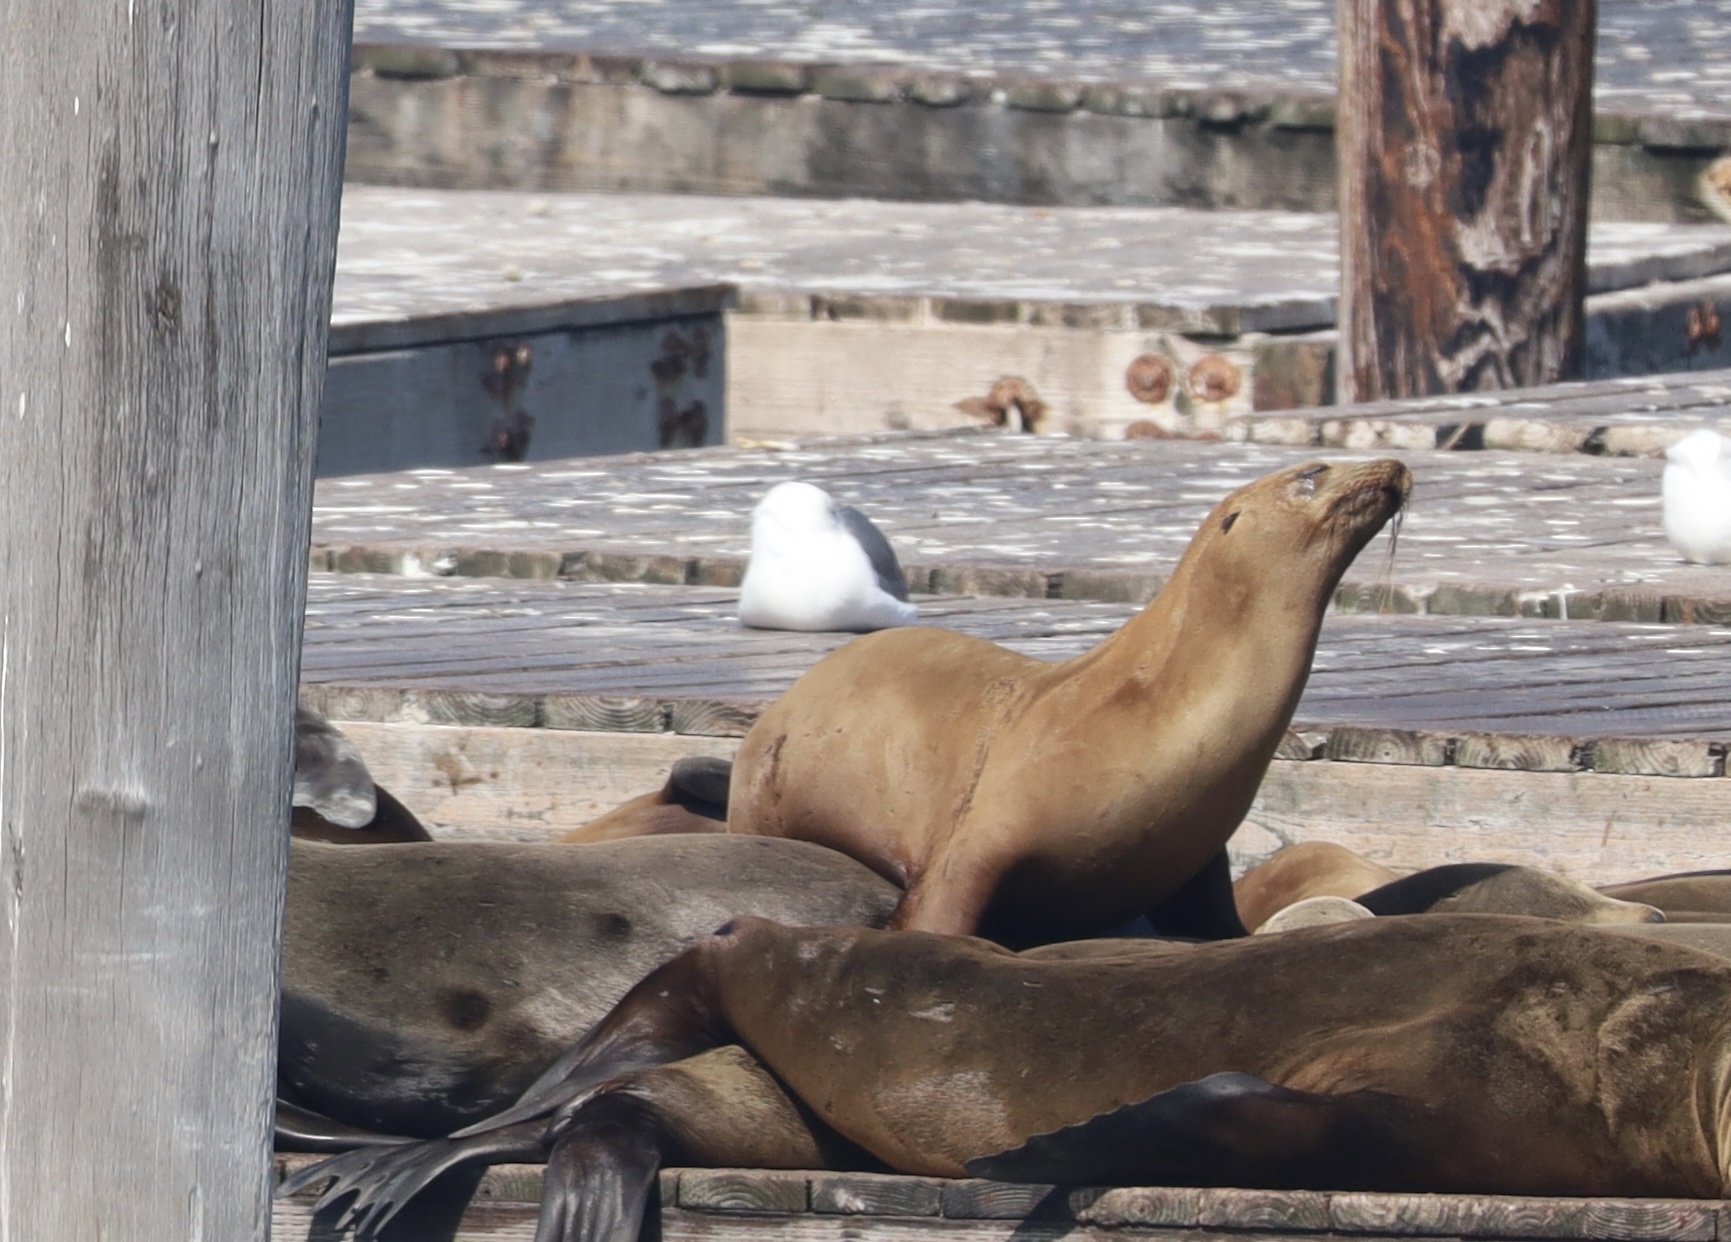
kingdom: Animalia
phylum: Chordata
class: Mammalia
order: Carnivora
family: Otariidae
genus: Zalophus
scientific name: Zalophus californianus
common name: California sea lion
